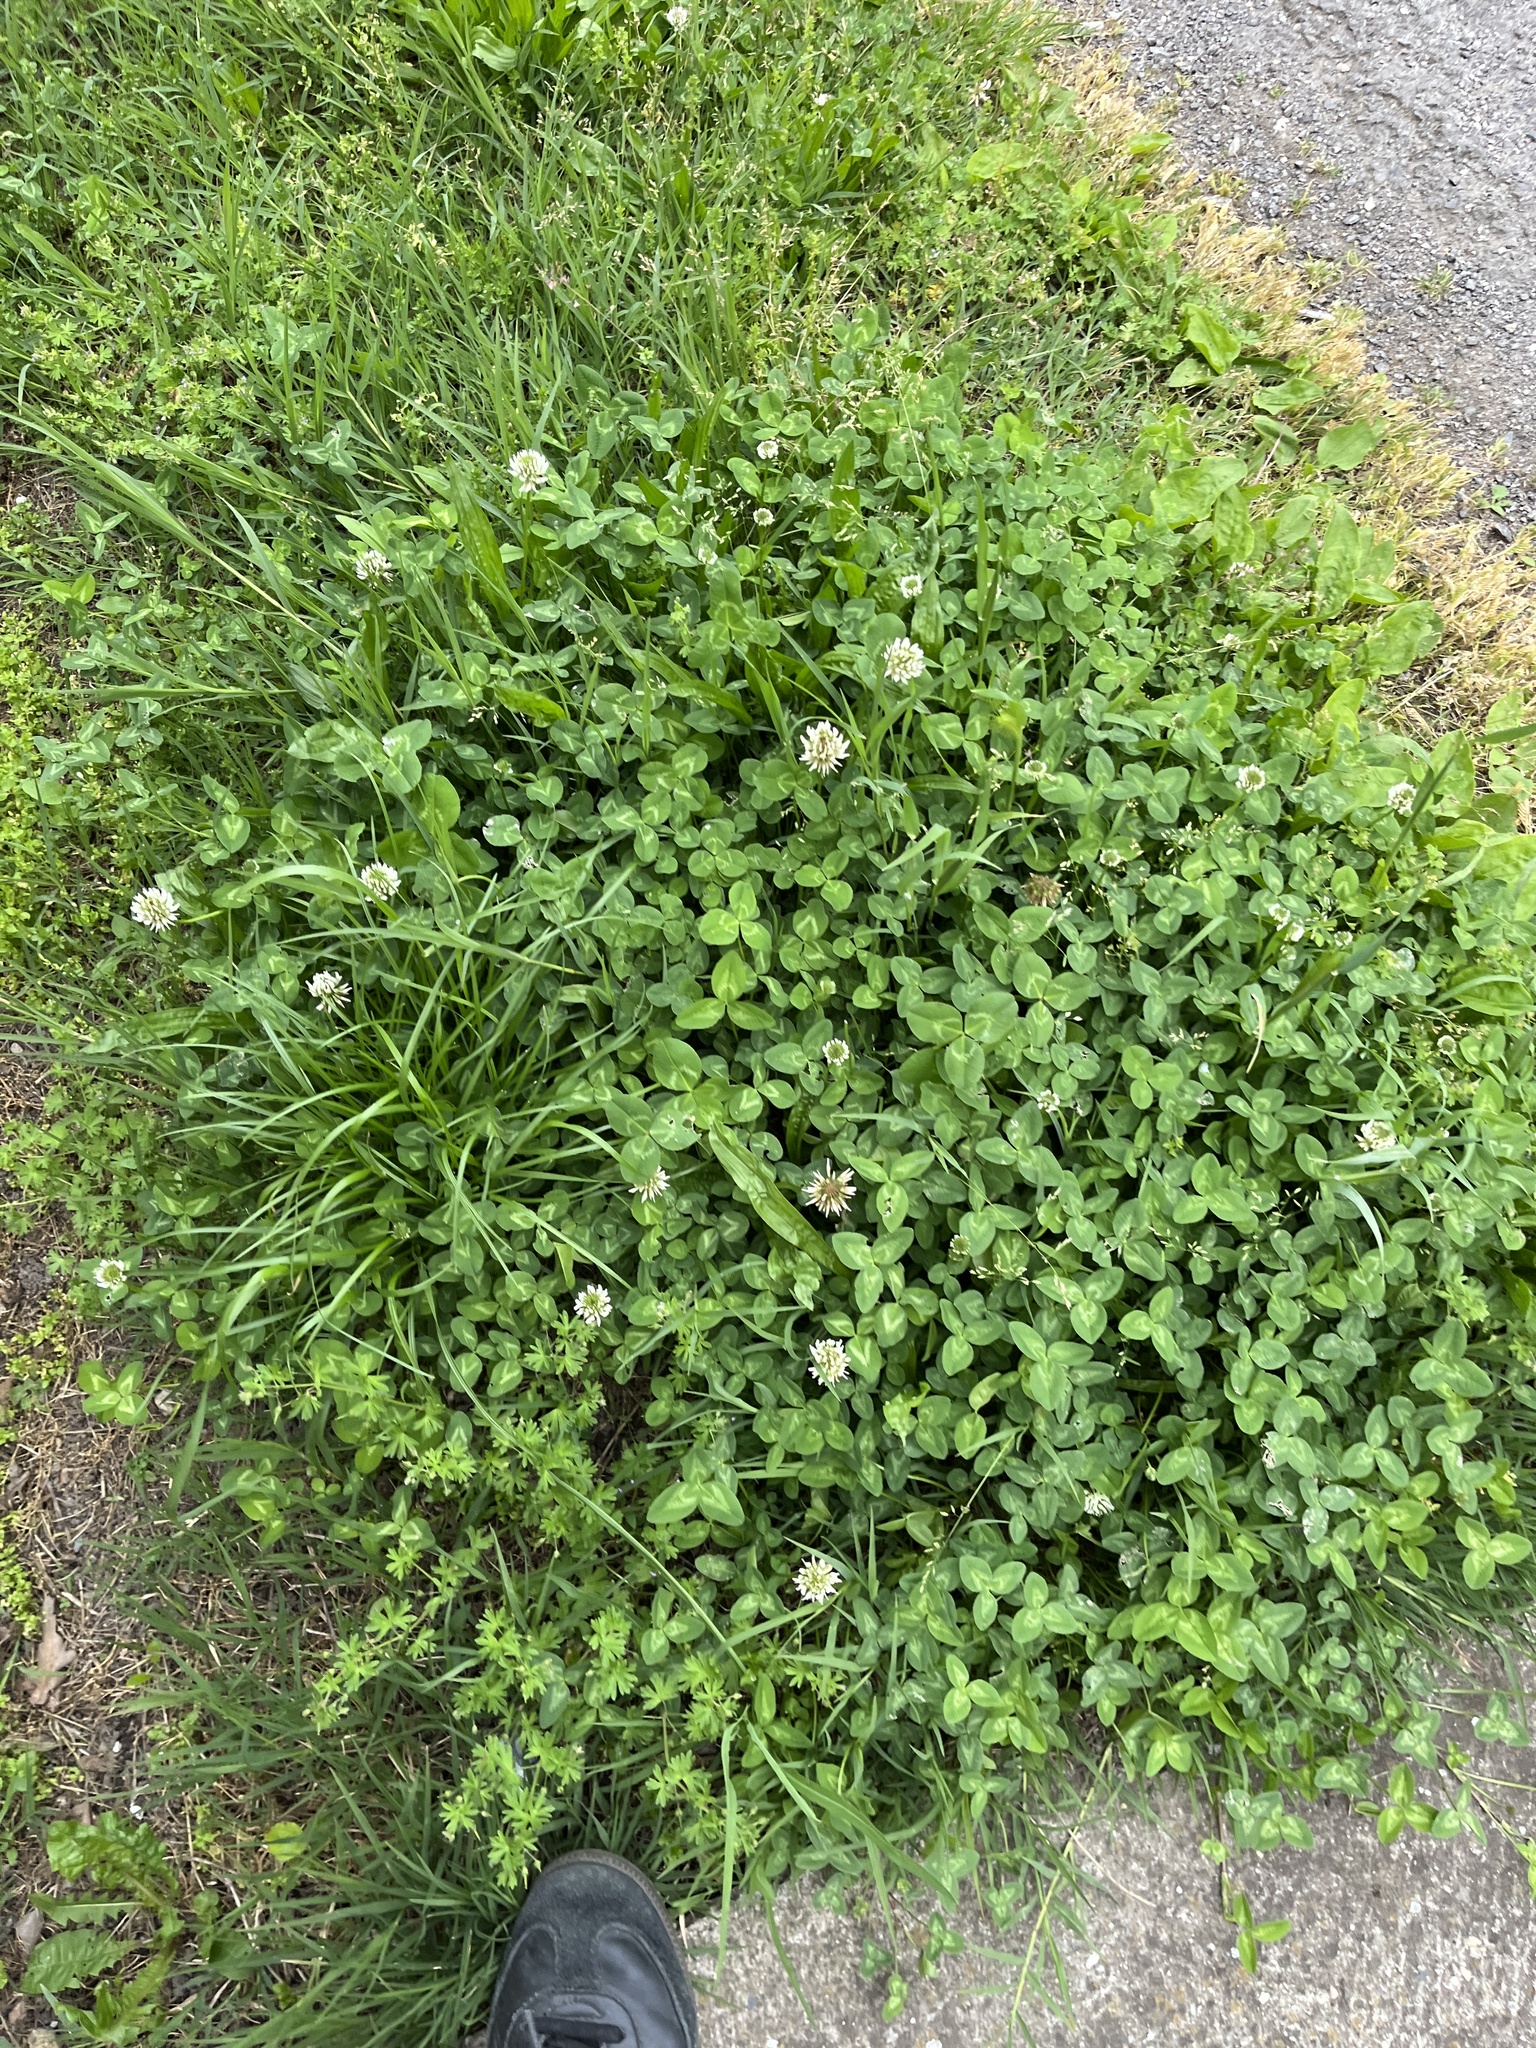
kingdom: Plantae
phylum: Tracheophyta
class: Magnoliopsida
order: Fabales
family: Fabaceae
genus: Trifolium
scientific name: Trifolium repens
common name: White clover
